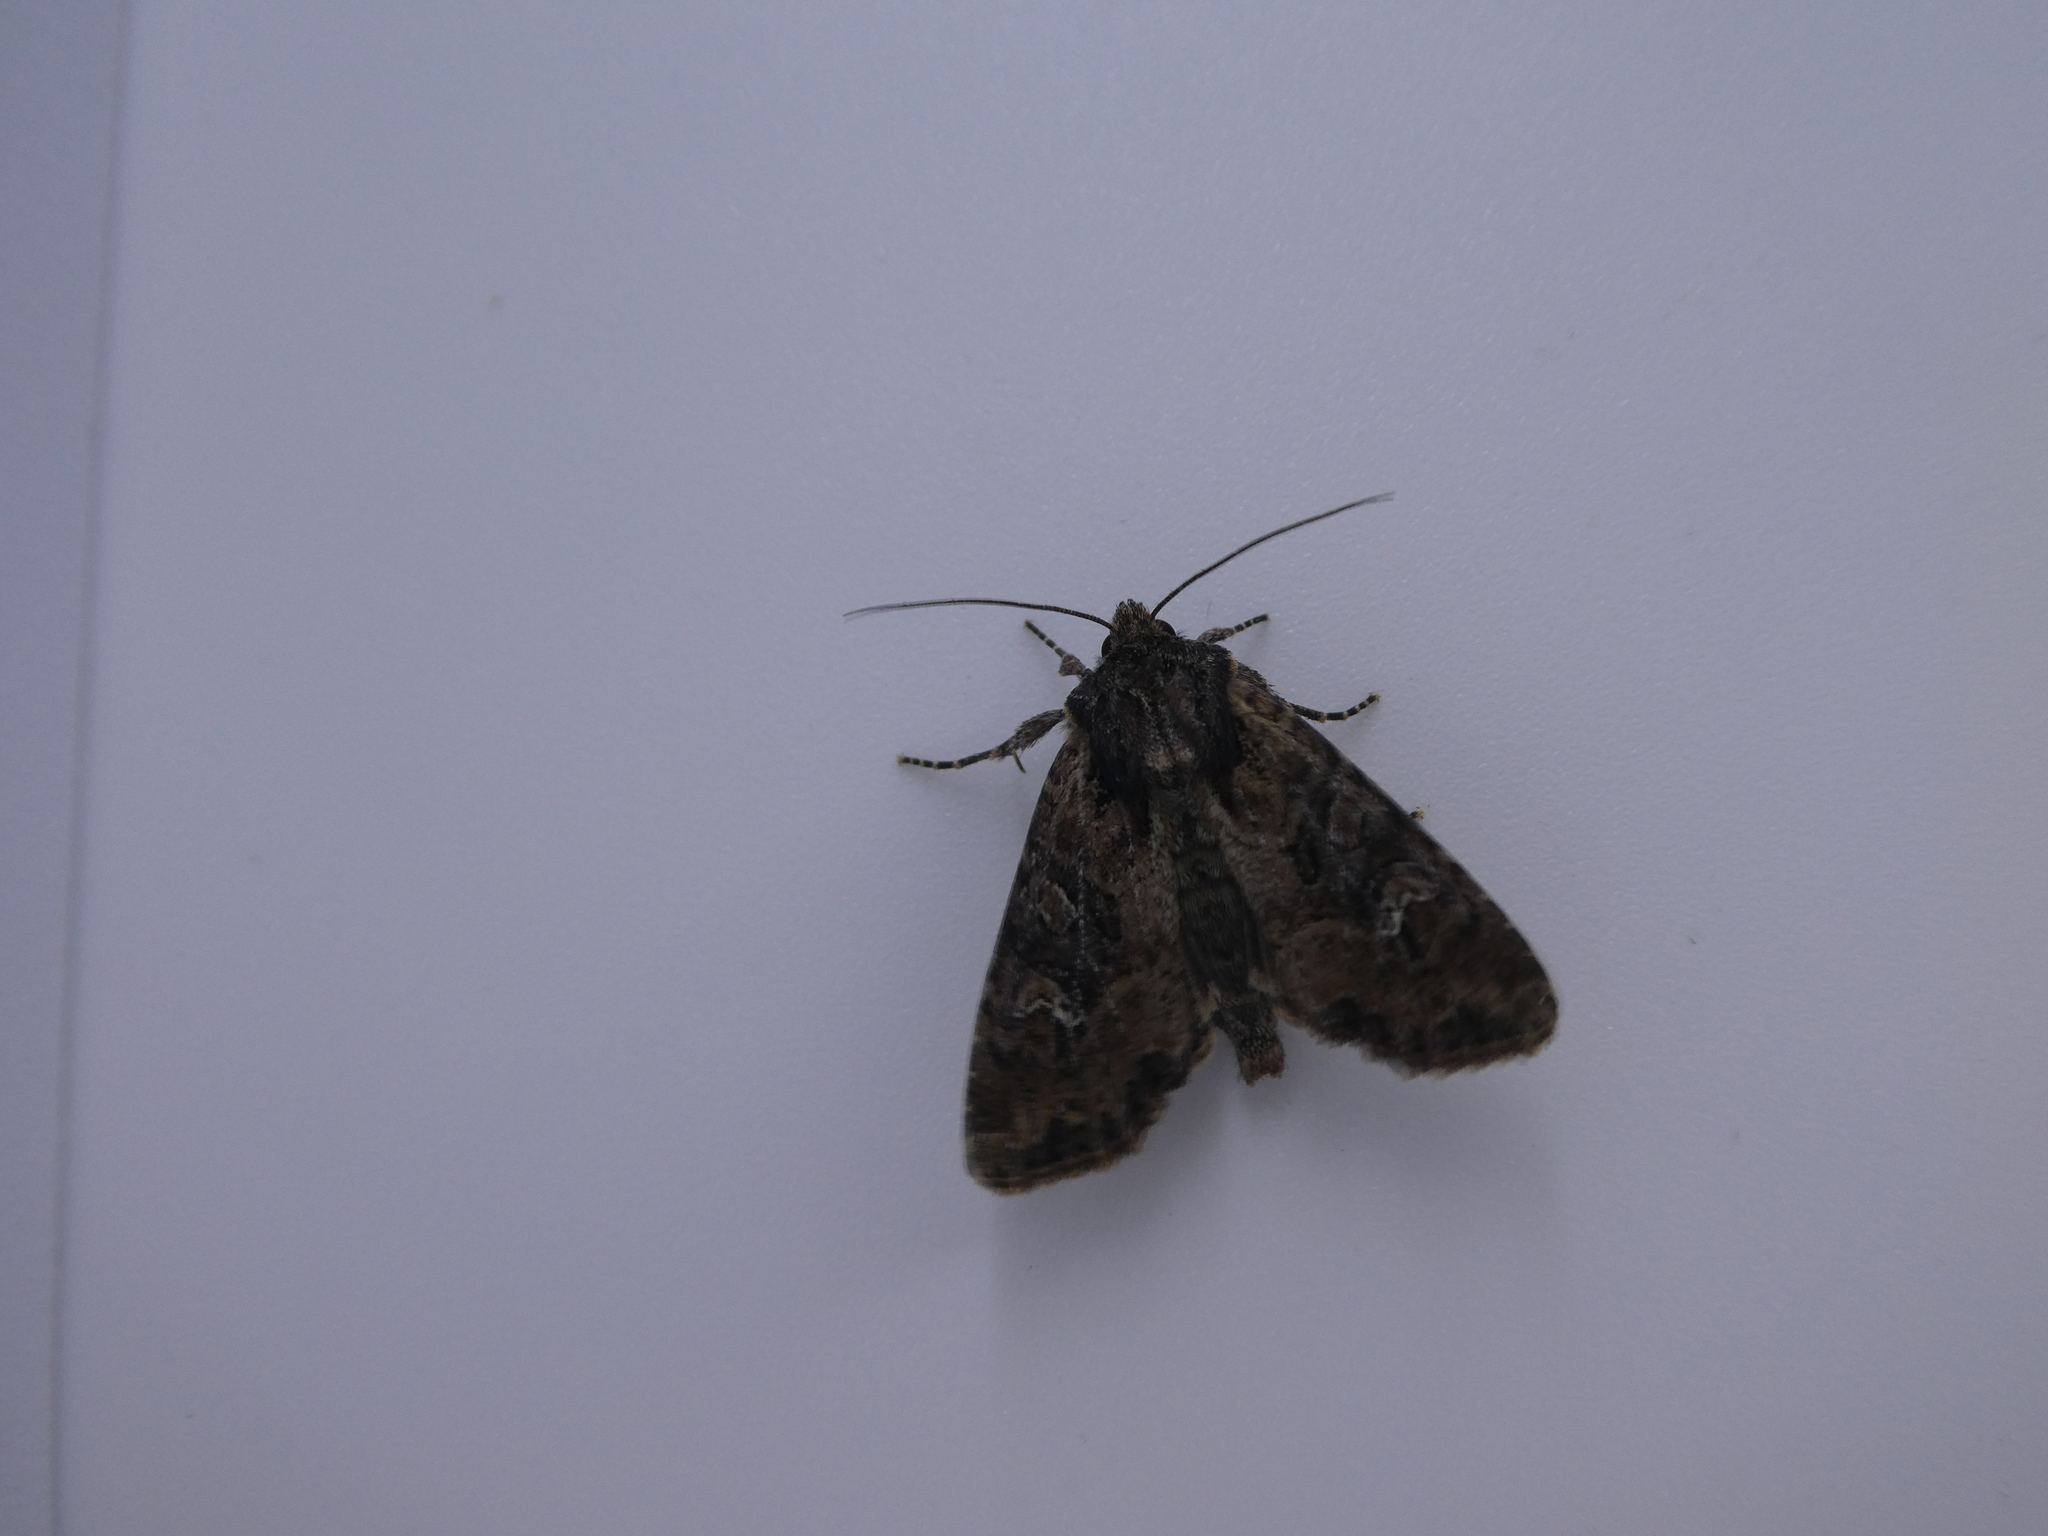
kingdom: Animalia
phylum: Arthropoda
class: Insecta
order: Lepidoptera
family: Noctuidae
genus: Apamea
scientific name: Apamea unanimis
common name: Small clouded brindle
